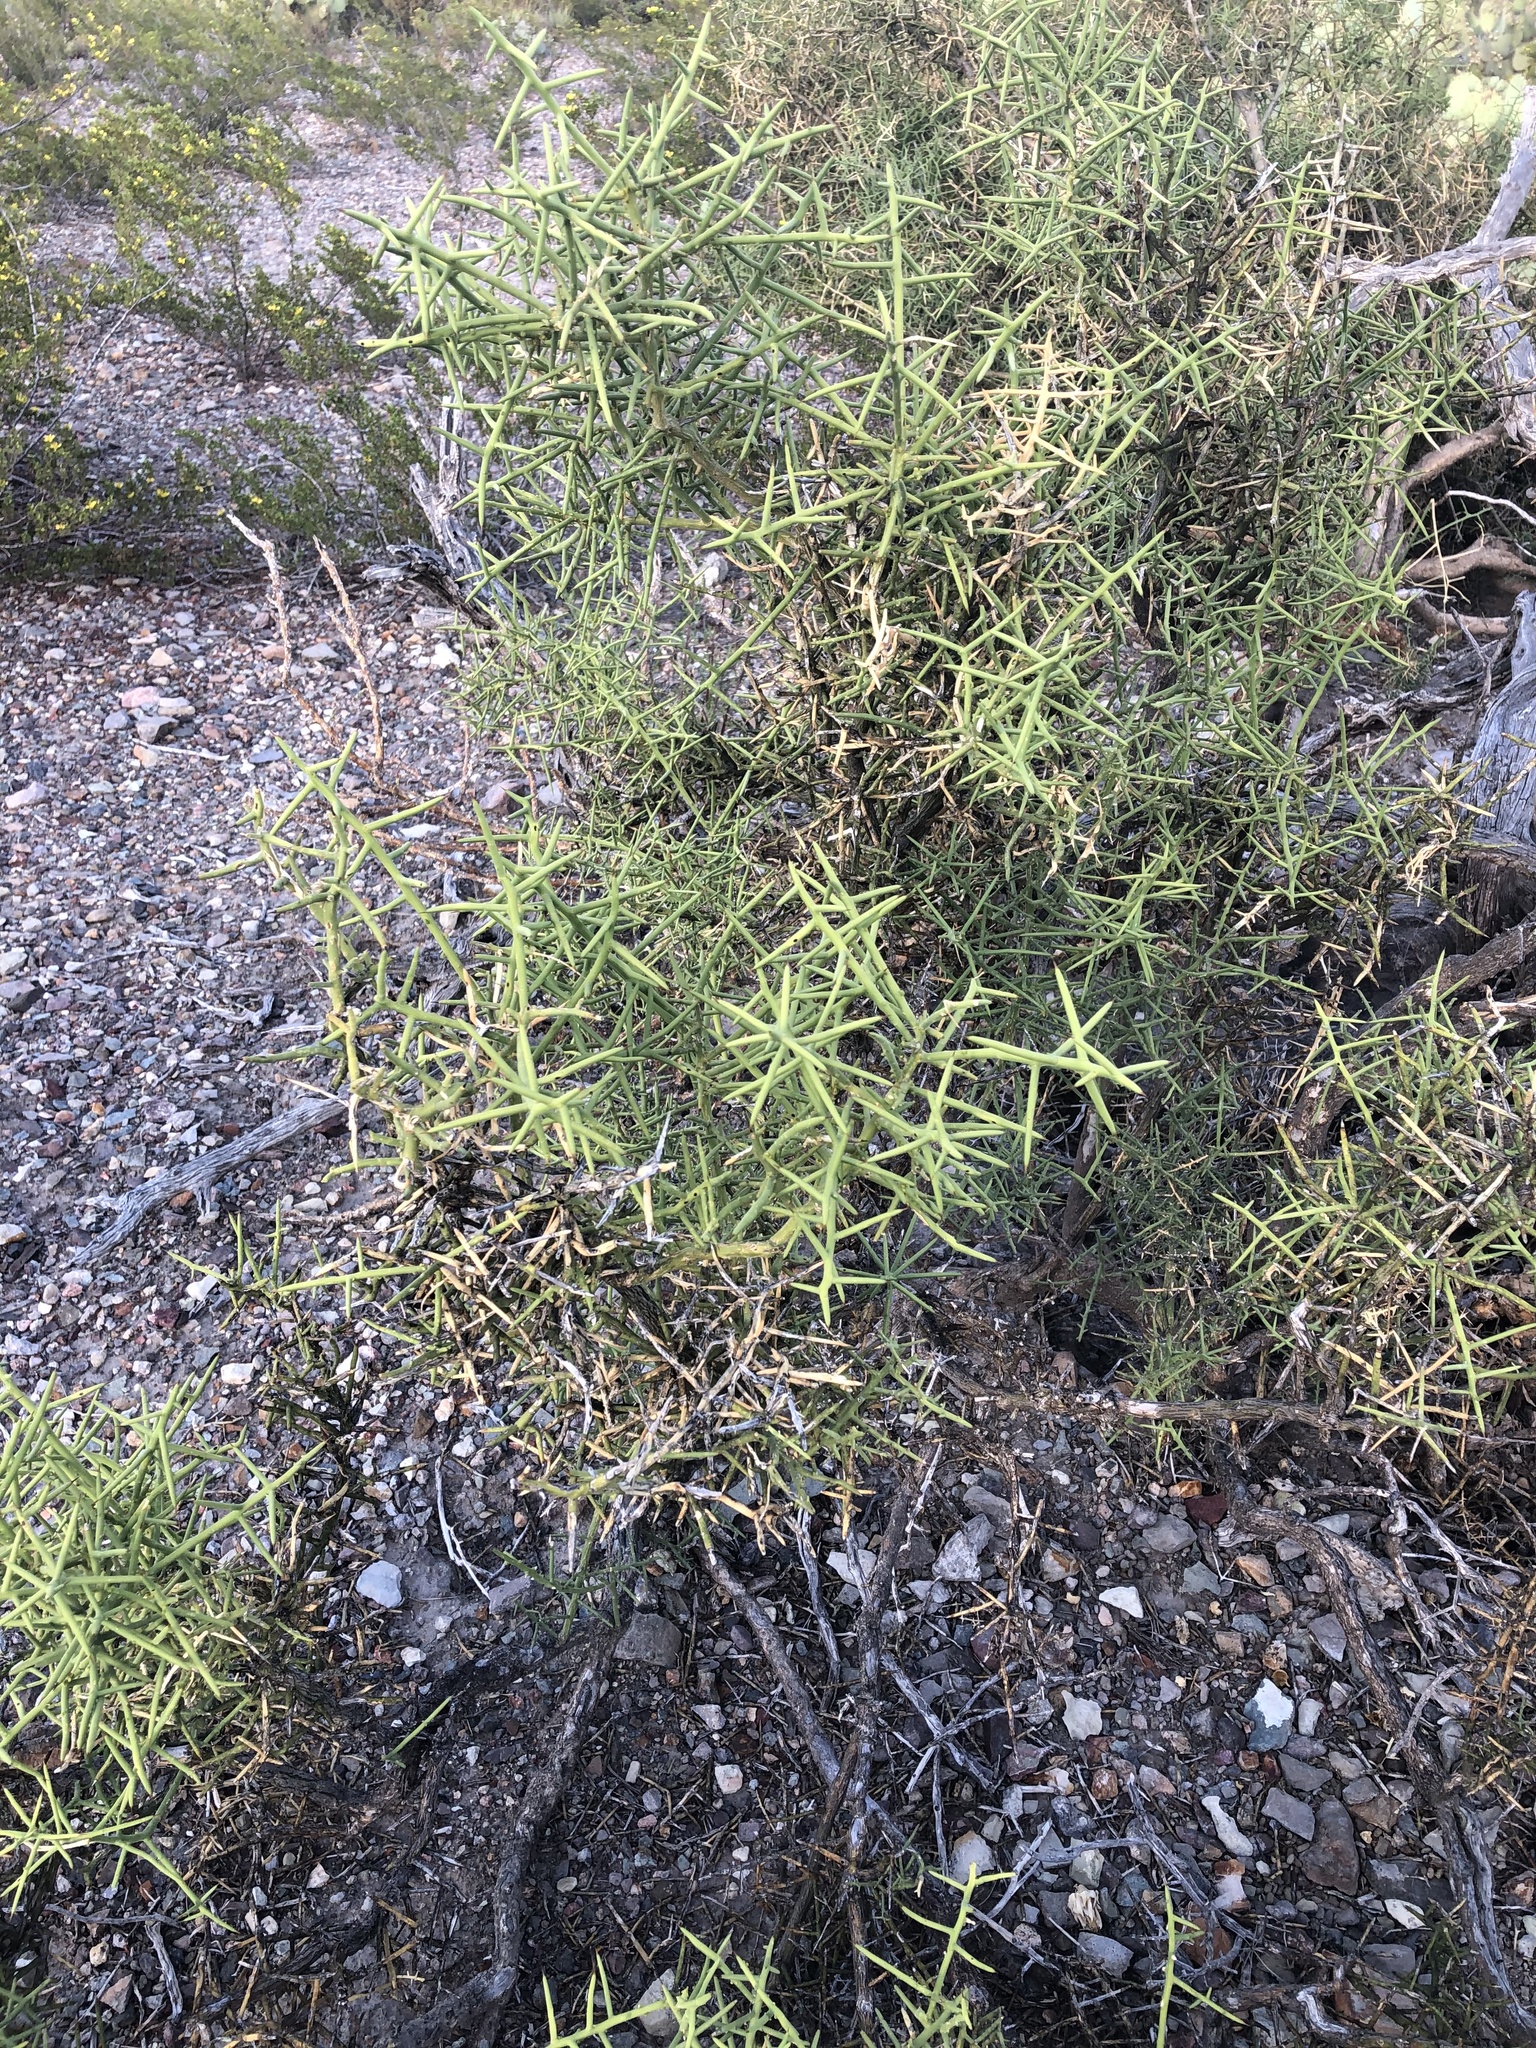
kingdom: Plantae
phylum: Tracheophyta
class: Magnoliopsida
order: Brassicales
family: Koeberliniaceae
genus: Koeberlinia
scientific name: Koeberlinia spinosa
